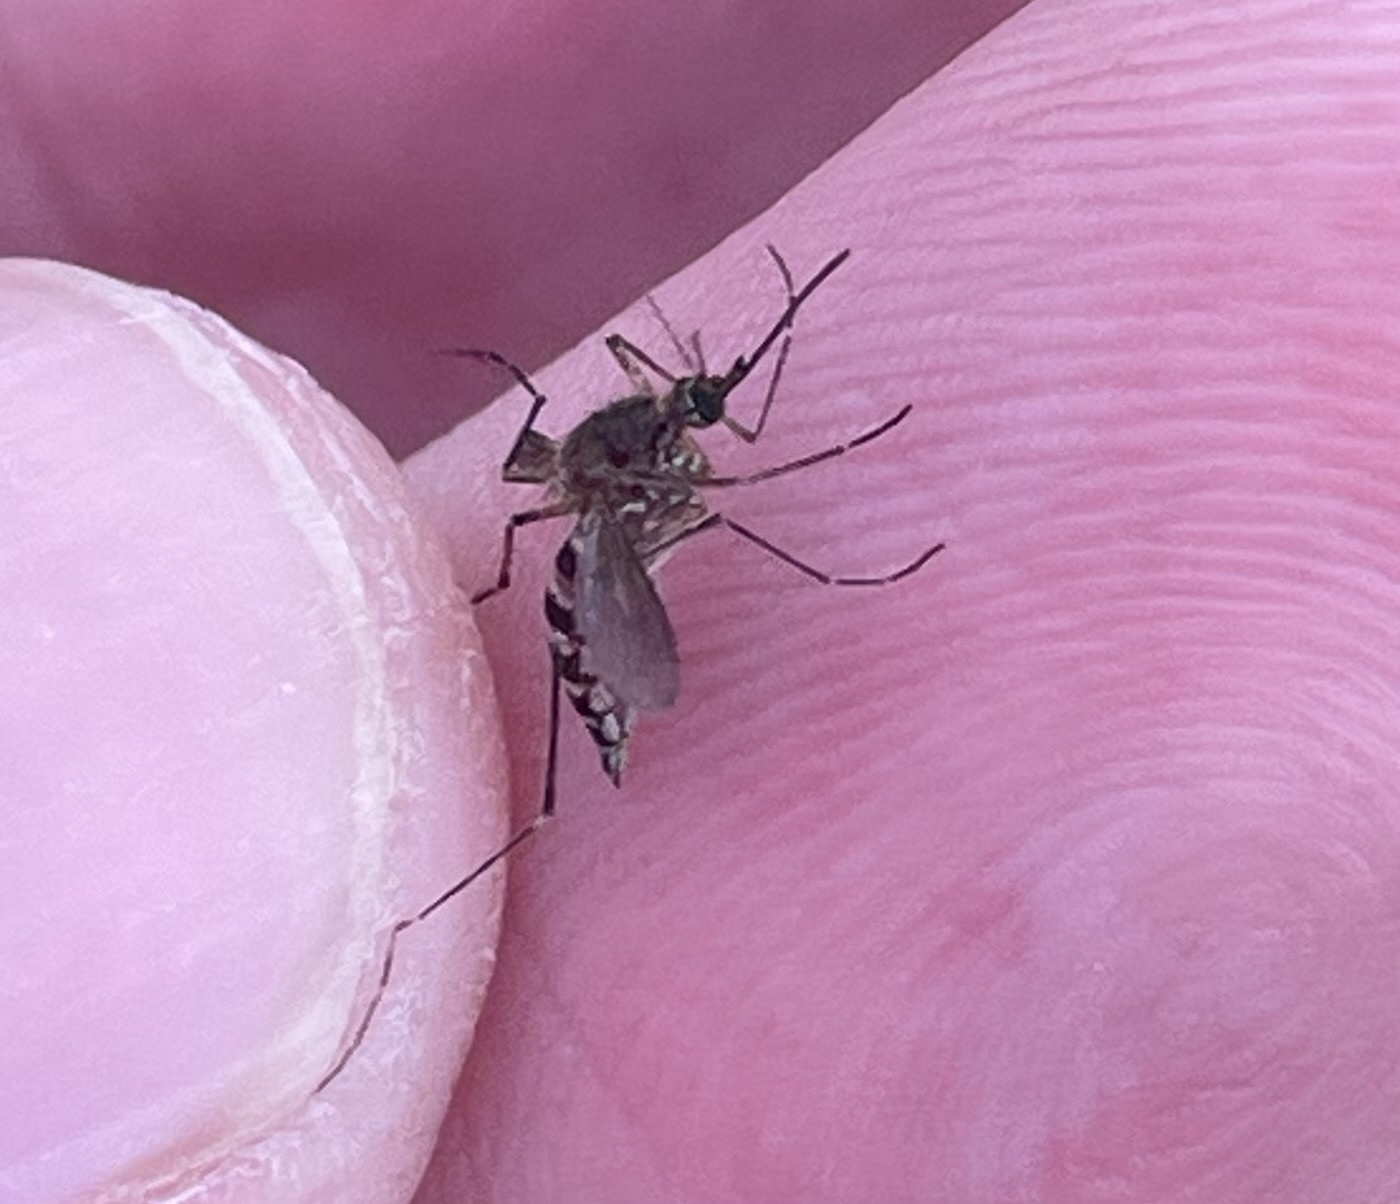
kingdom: Animalia
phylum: Arthropoda
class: Insecta
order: Diptera
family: Culicidae
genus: Aedes
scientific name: Aedes vexans
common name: Inland floodwater mosquito
